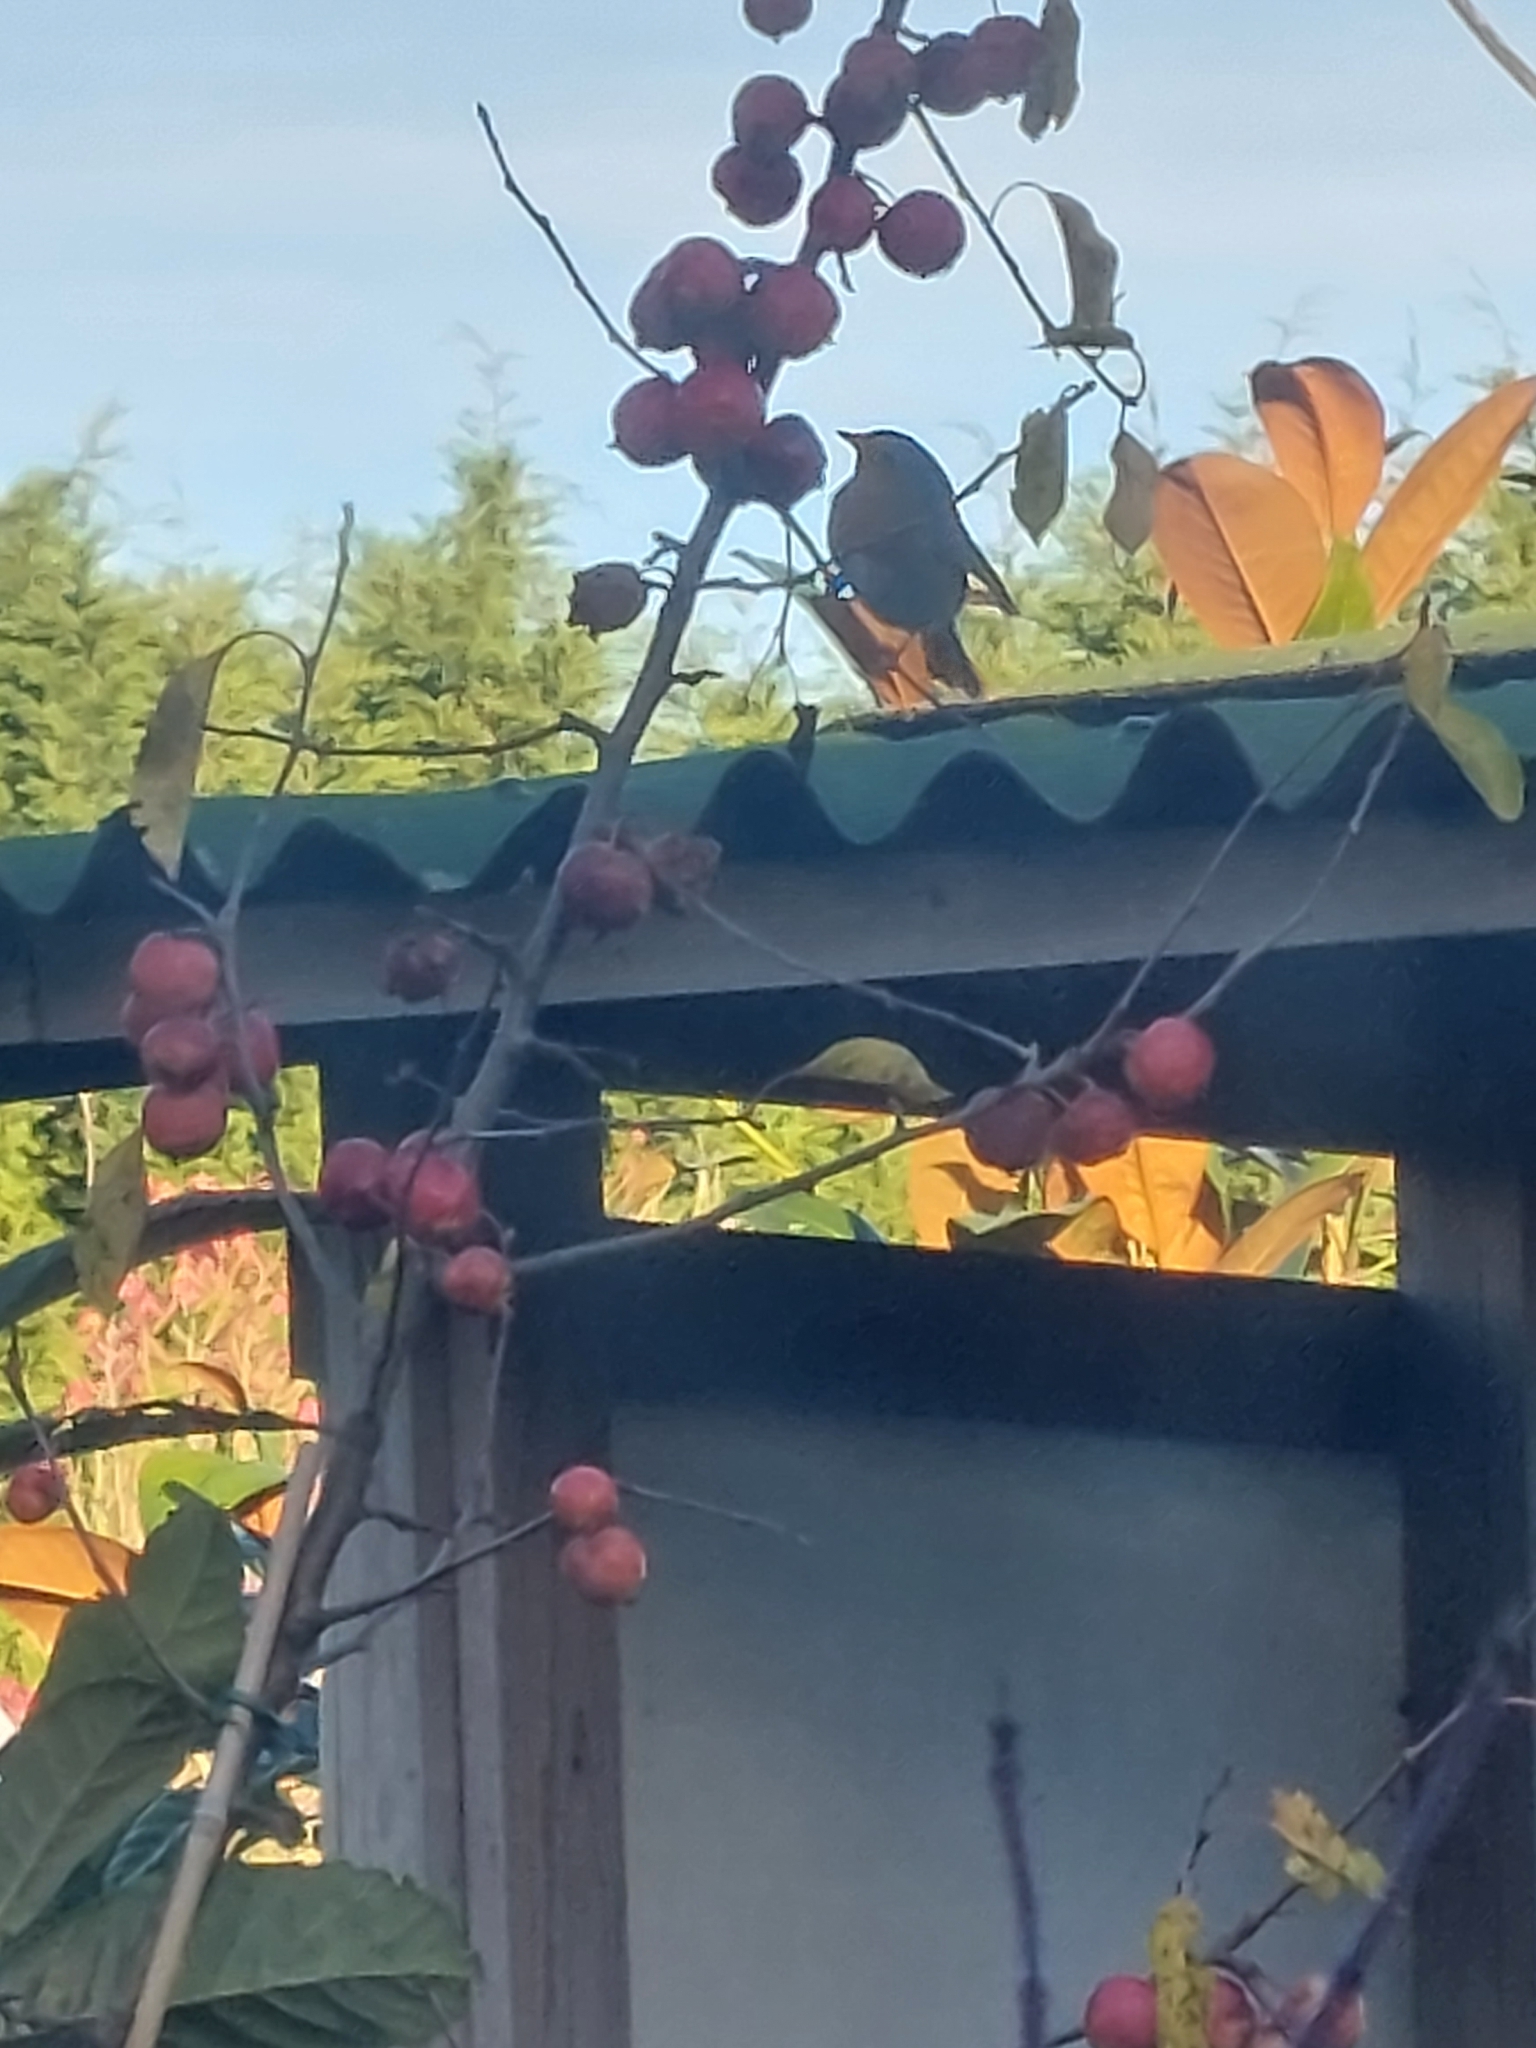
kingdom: Animalia
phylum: Chordata
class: Aves
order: Passeriformes
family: Muscicapidae
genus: Erithacus
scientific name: Erithacus rubecula
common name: European robin
